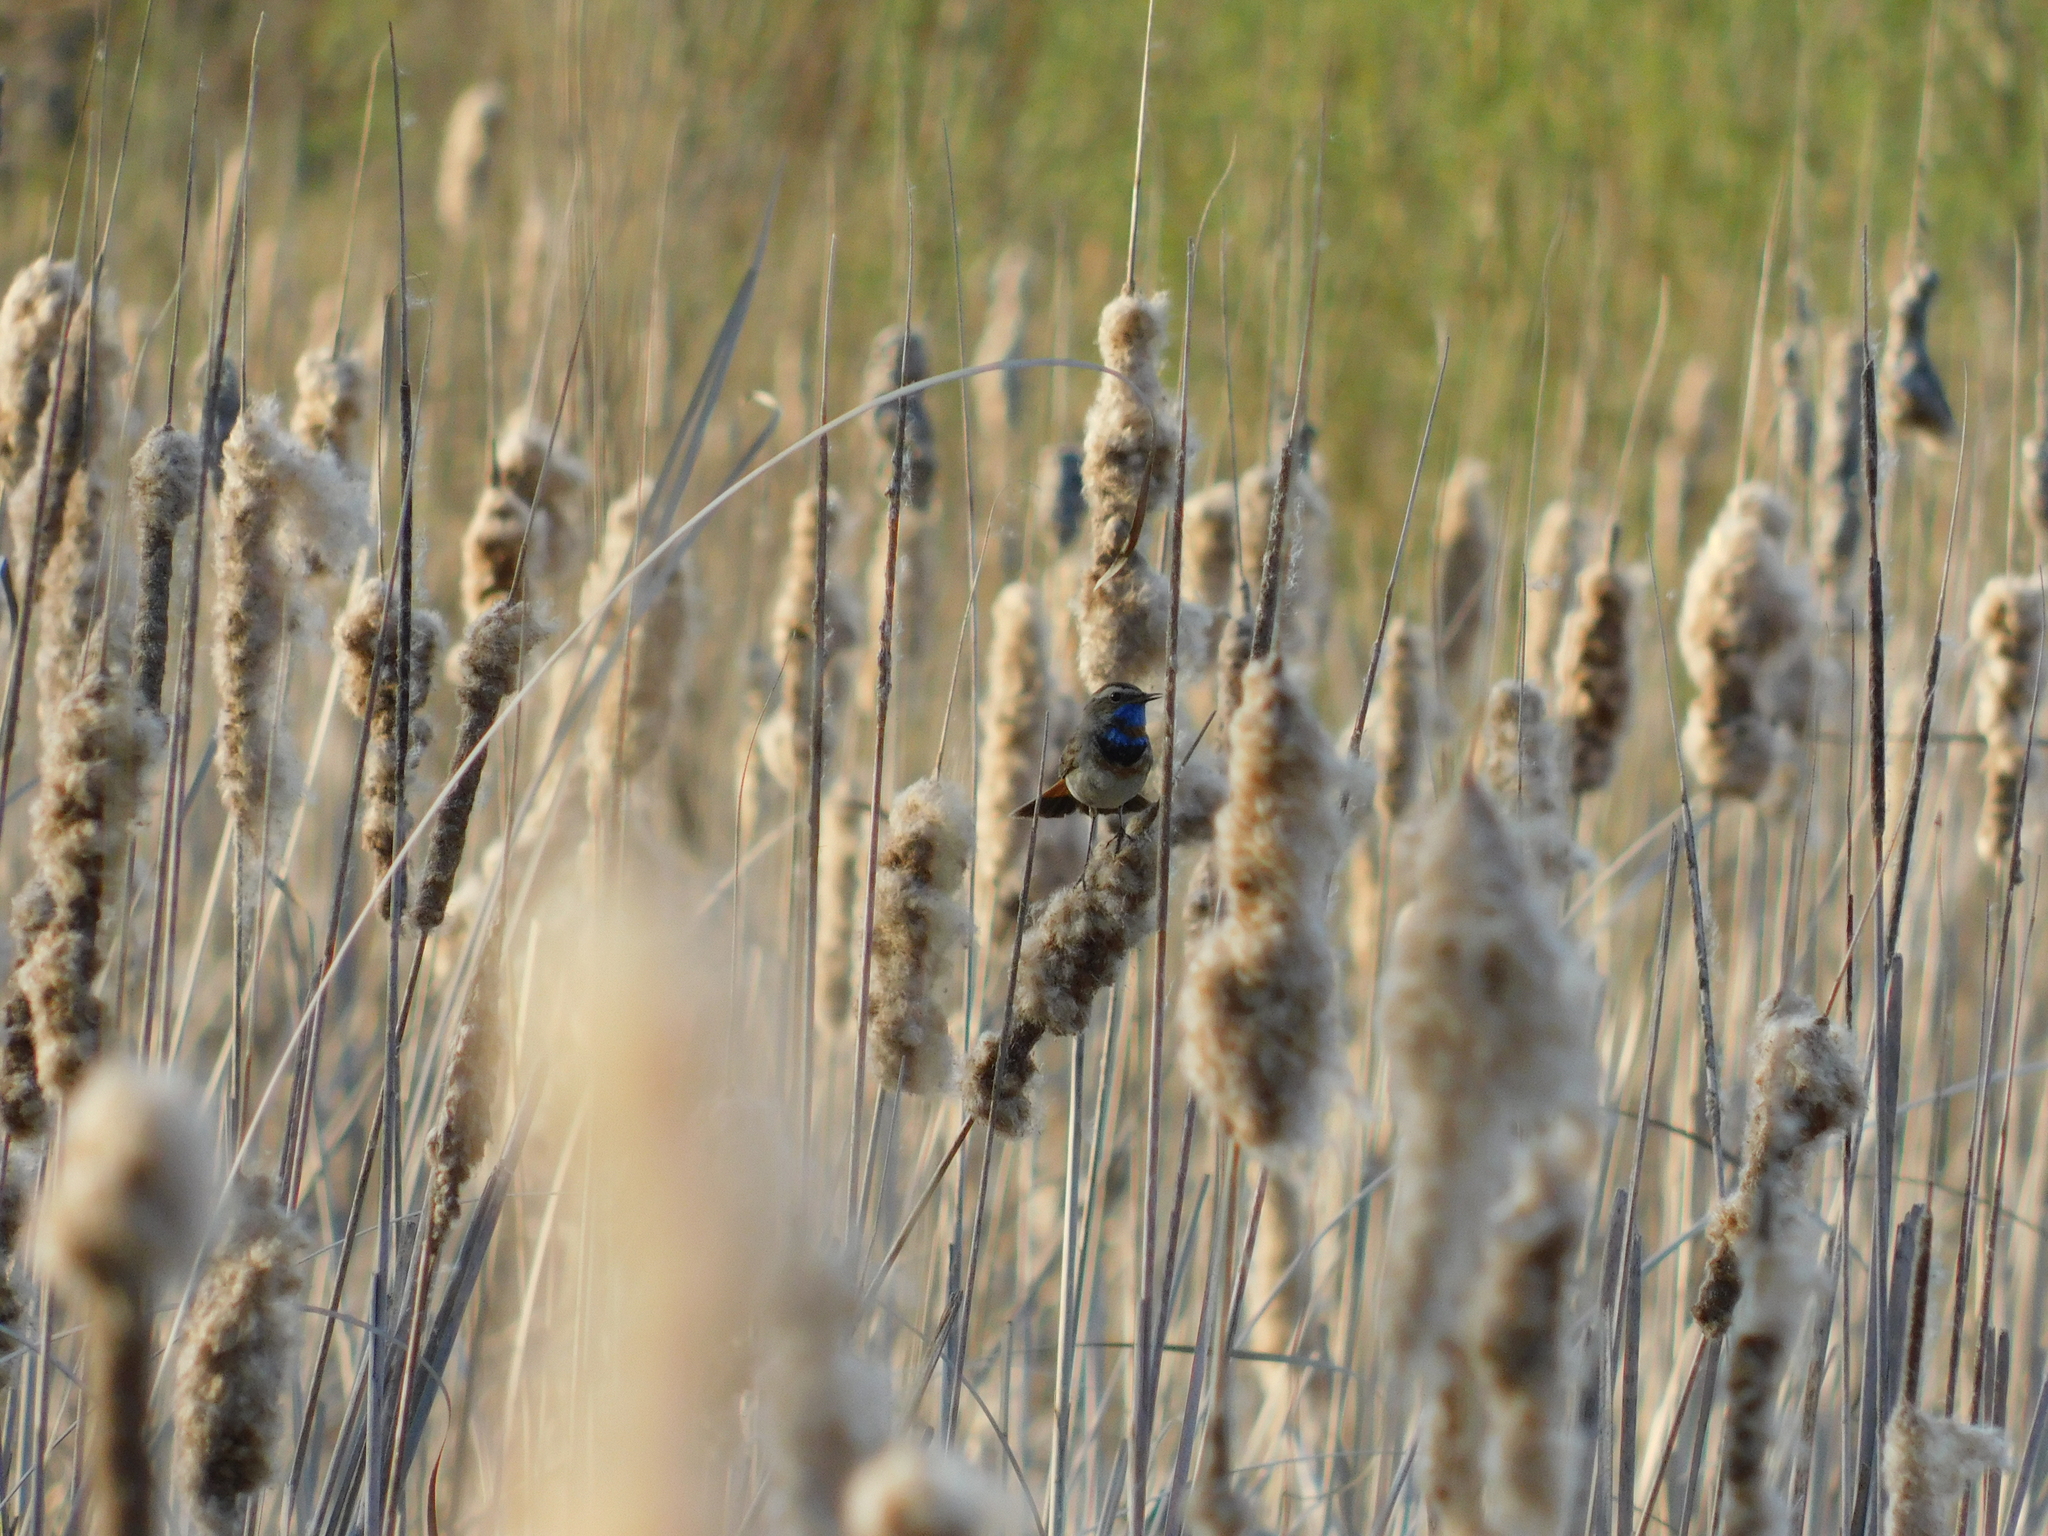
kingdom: Animalia
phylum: Chordata
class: Aves
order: Passeriformes
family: Muscicapidae
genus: Luscinia
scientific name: Luscinia svecica
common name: Bluethroat
